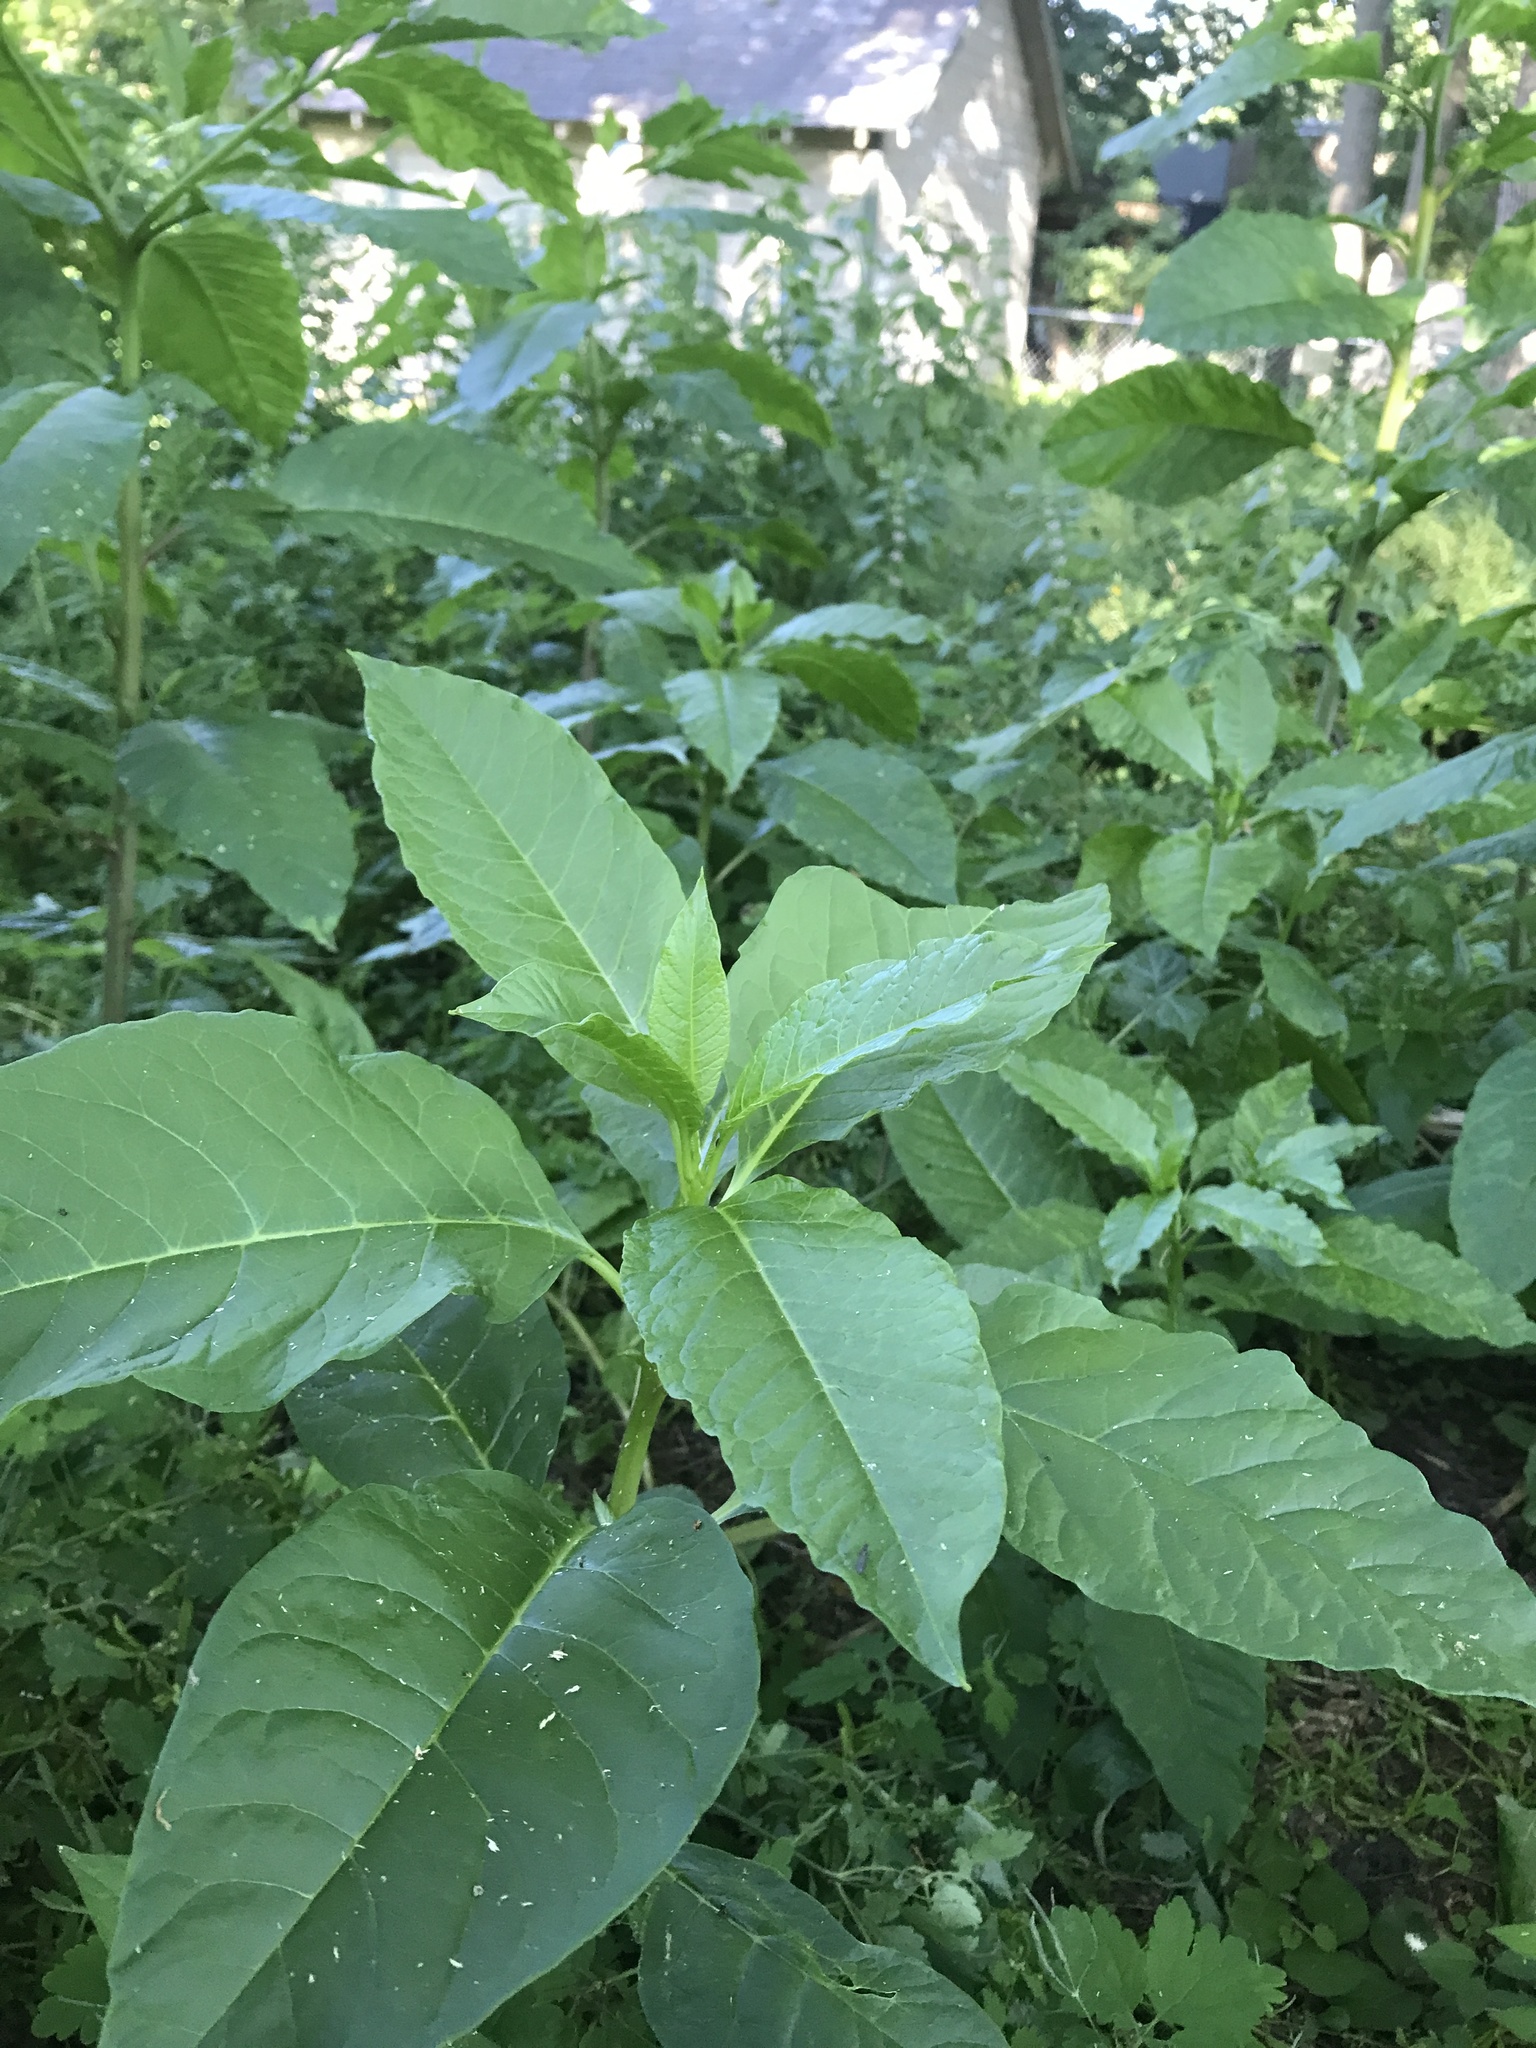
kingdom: Plantae
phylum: Tracheophyta
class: Magnoliopsida
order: Caryophyllales
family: Phytolaccaceae
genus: Phytolacca
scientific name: Phytolacca americana
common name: American pokeweed
